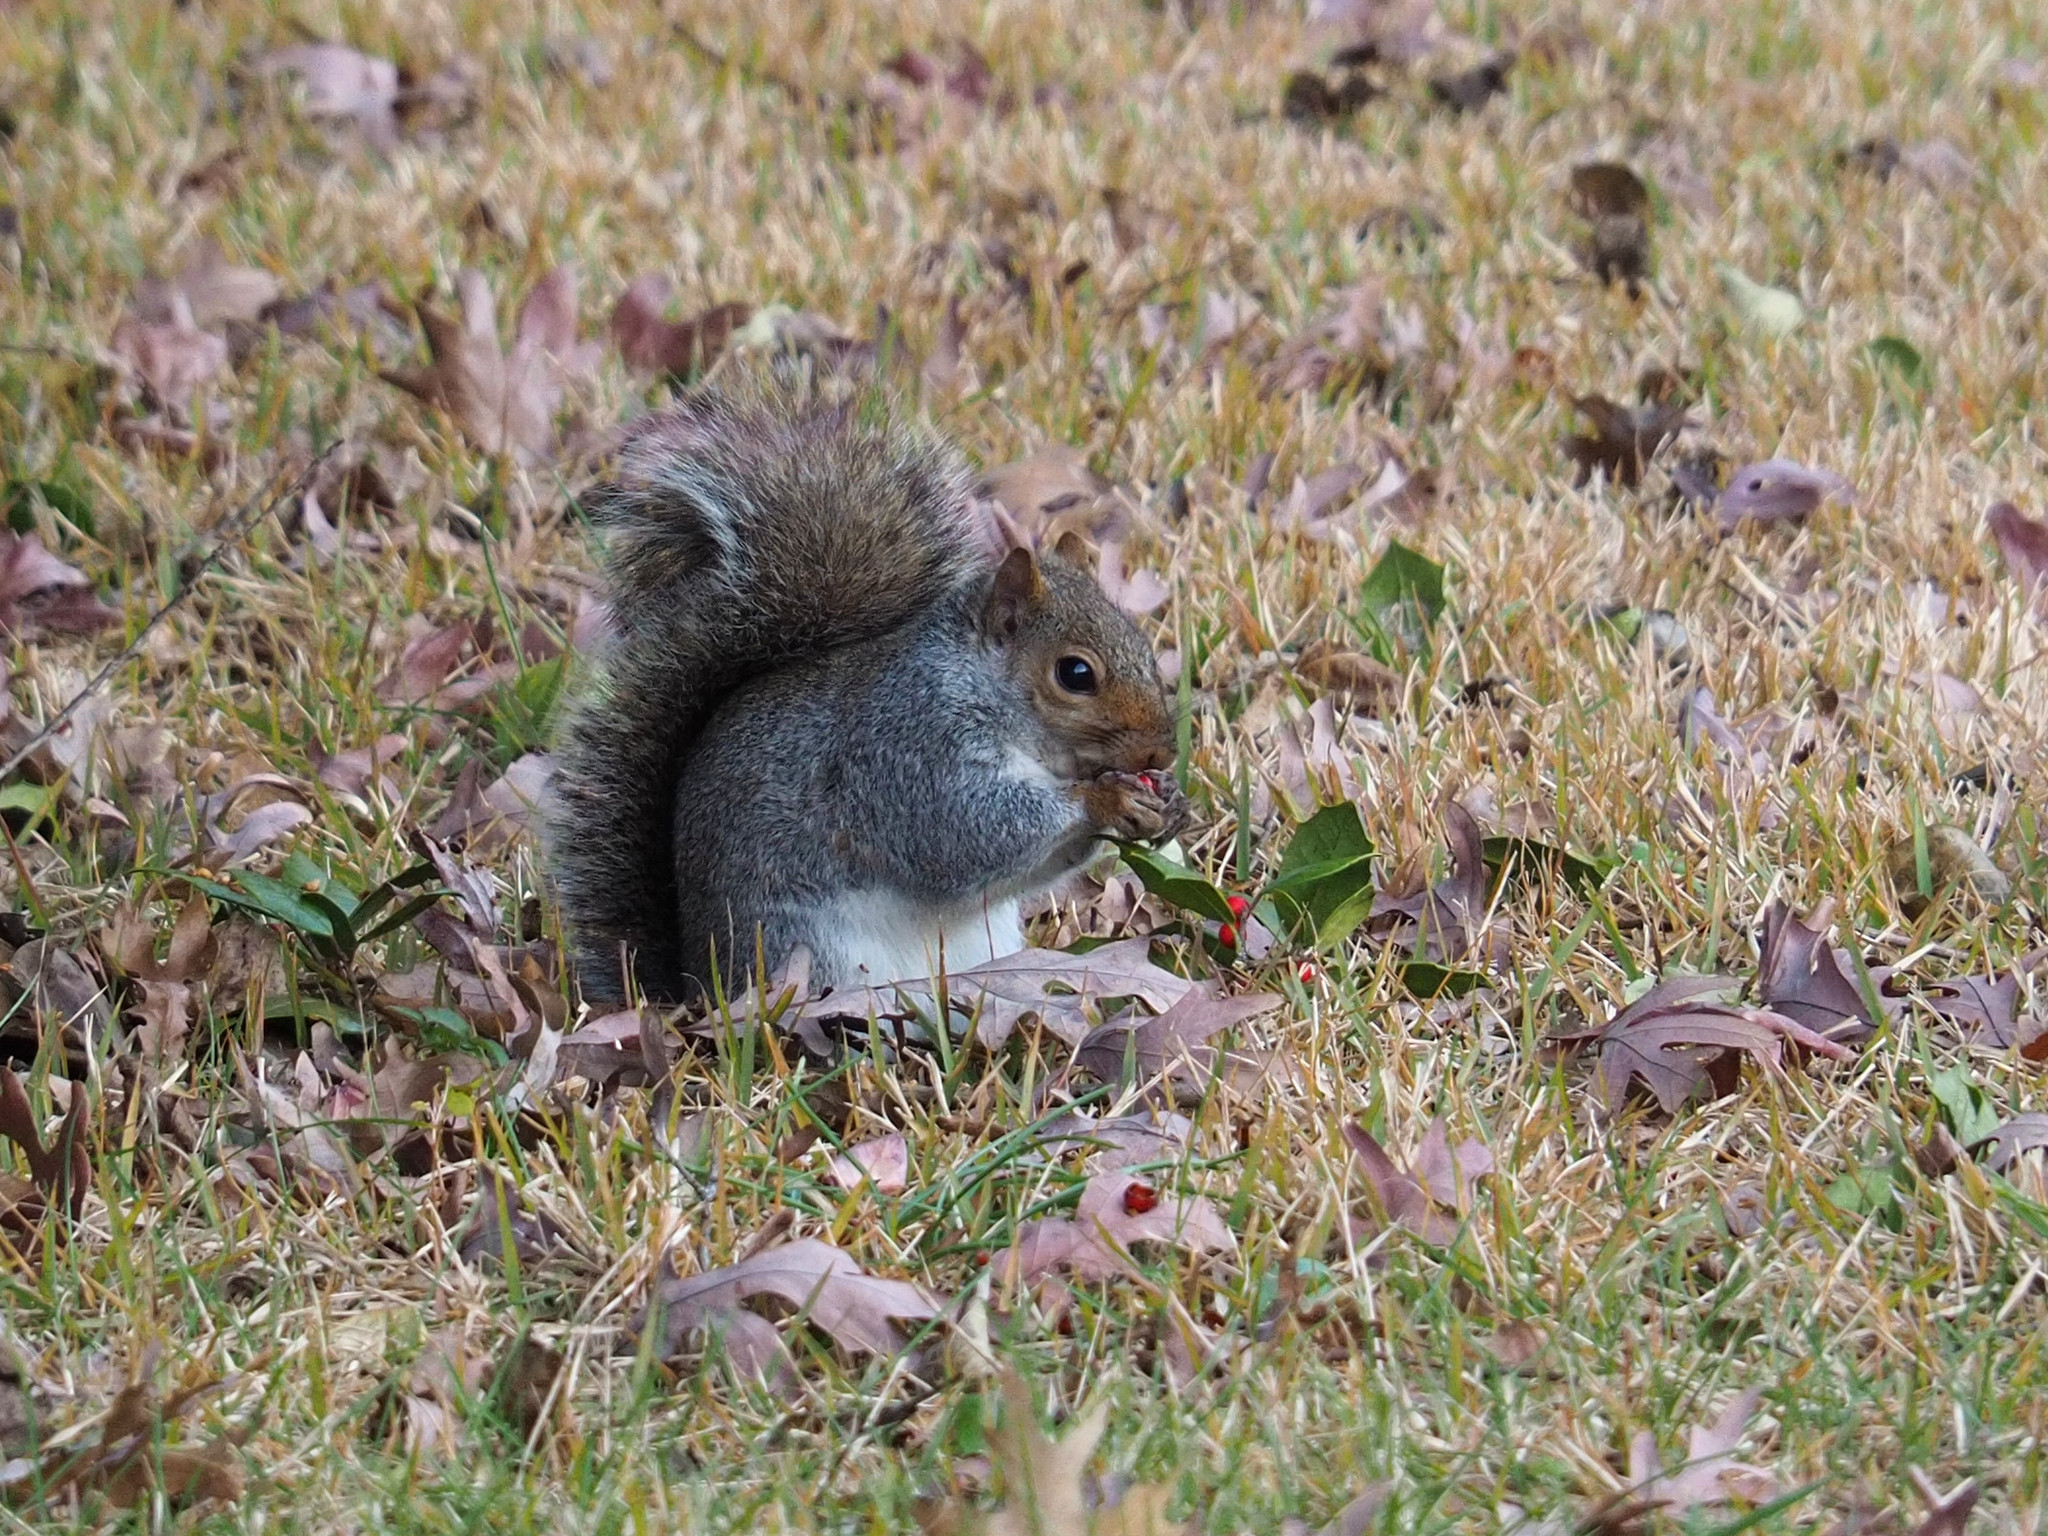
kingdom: Animalia
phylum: Chordata
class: Mammalia
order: Rodentia
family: Sciuridae
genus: Sciurus
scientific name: Sciurus carolinensis
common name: Eastern gray squirrel
